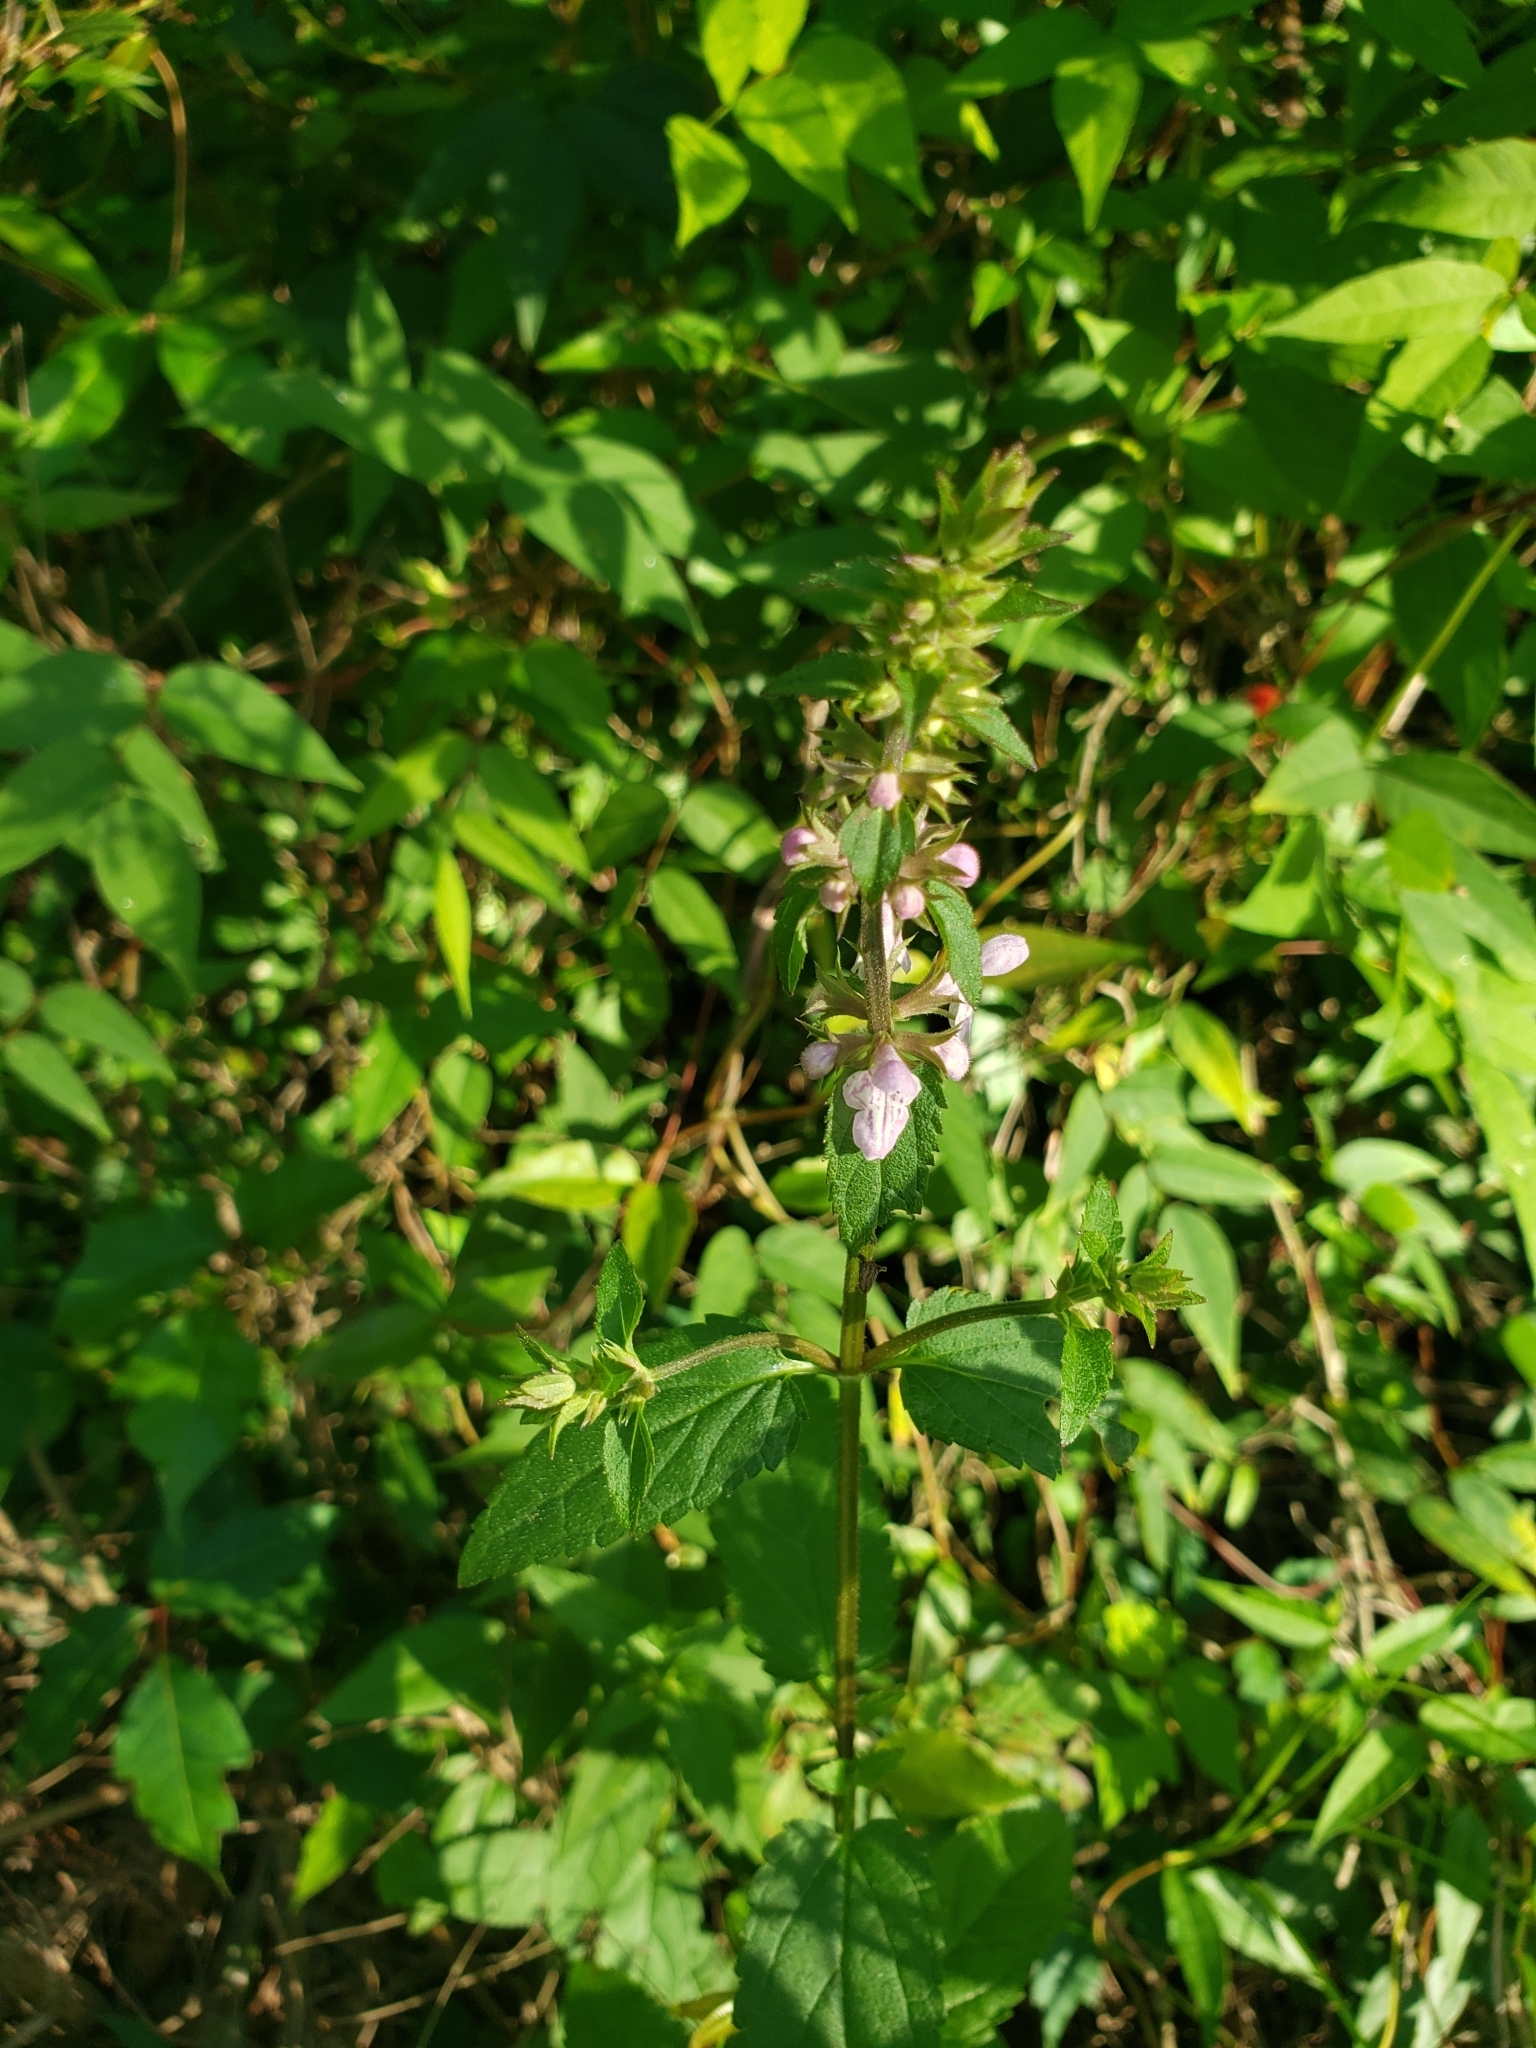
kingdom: Plantae
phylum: Tracheophyta
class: Magnoliopsida
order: Lamiales
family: Lamiaceae
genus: Stachys
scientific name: Stachys floridana
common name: Florida betony
